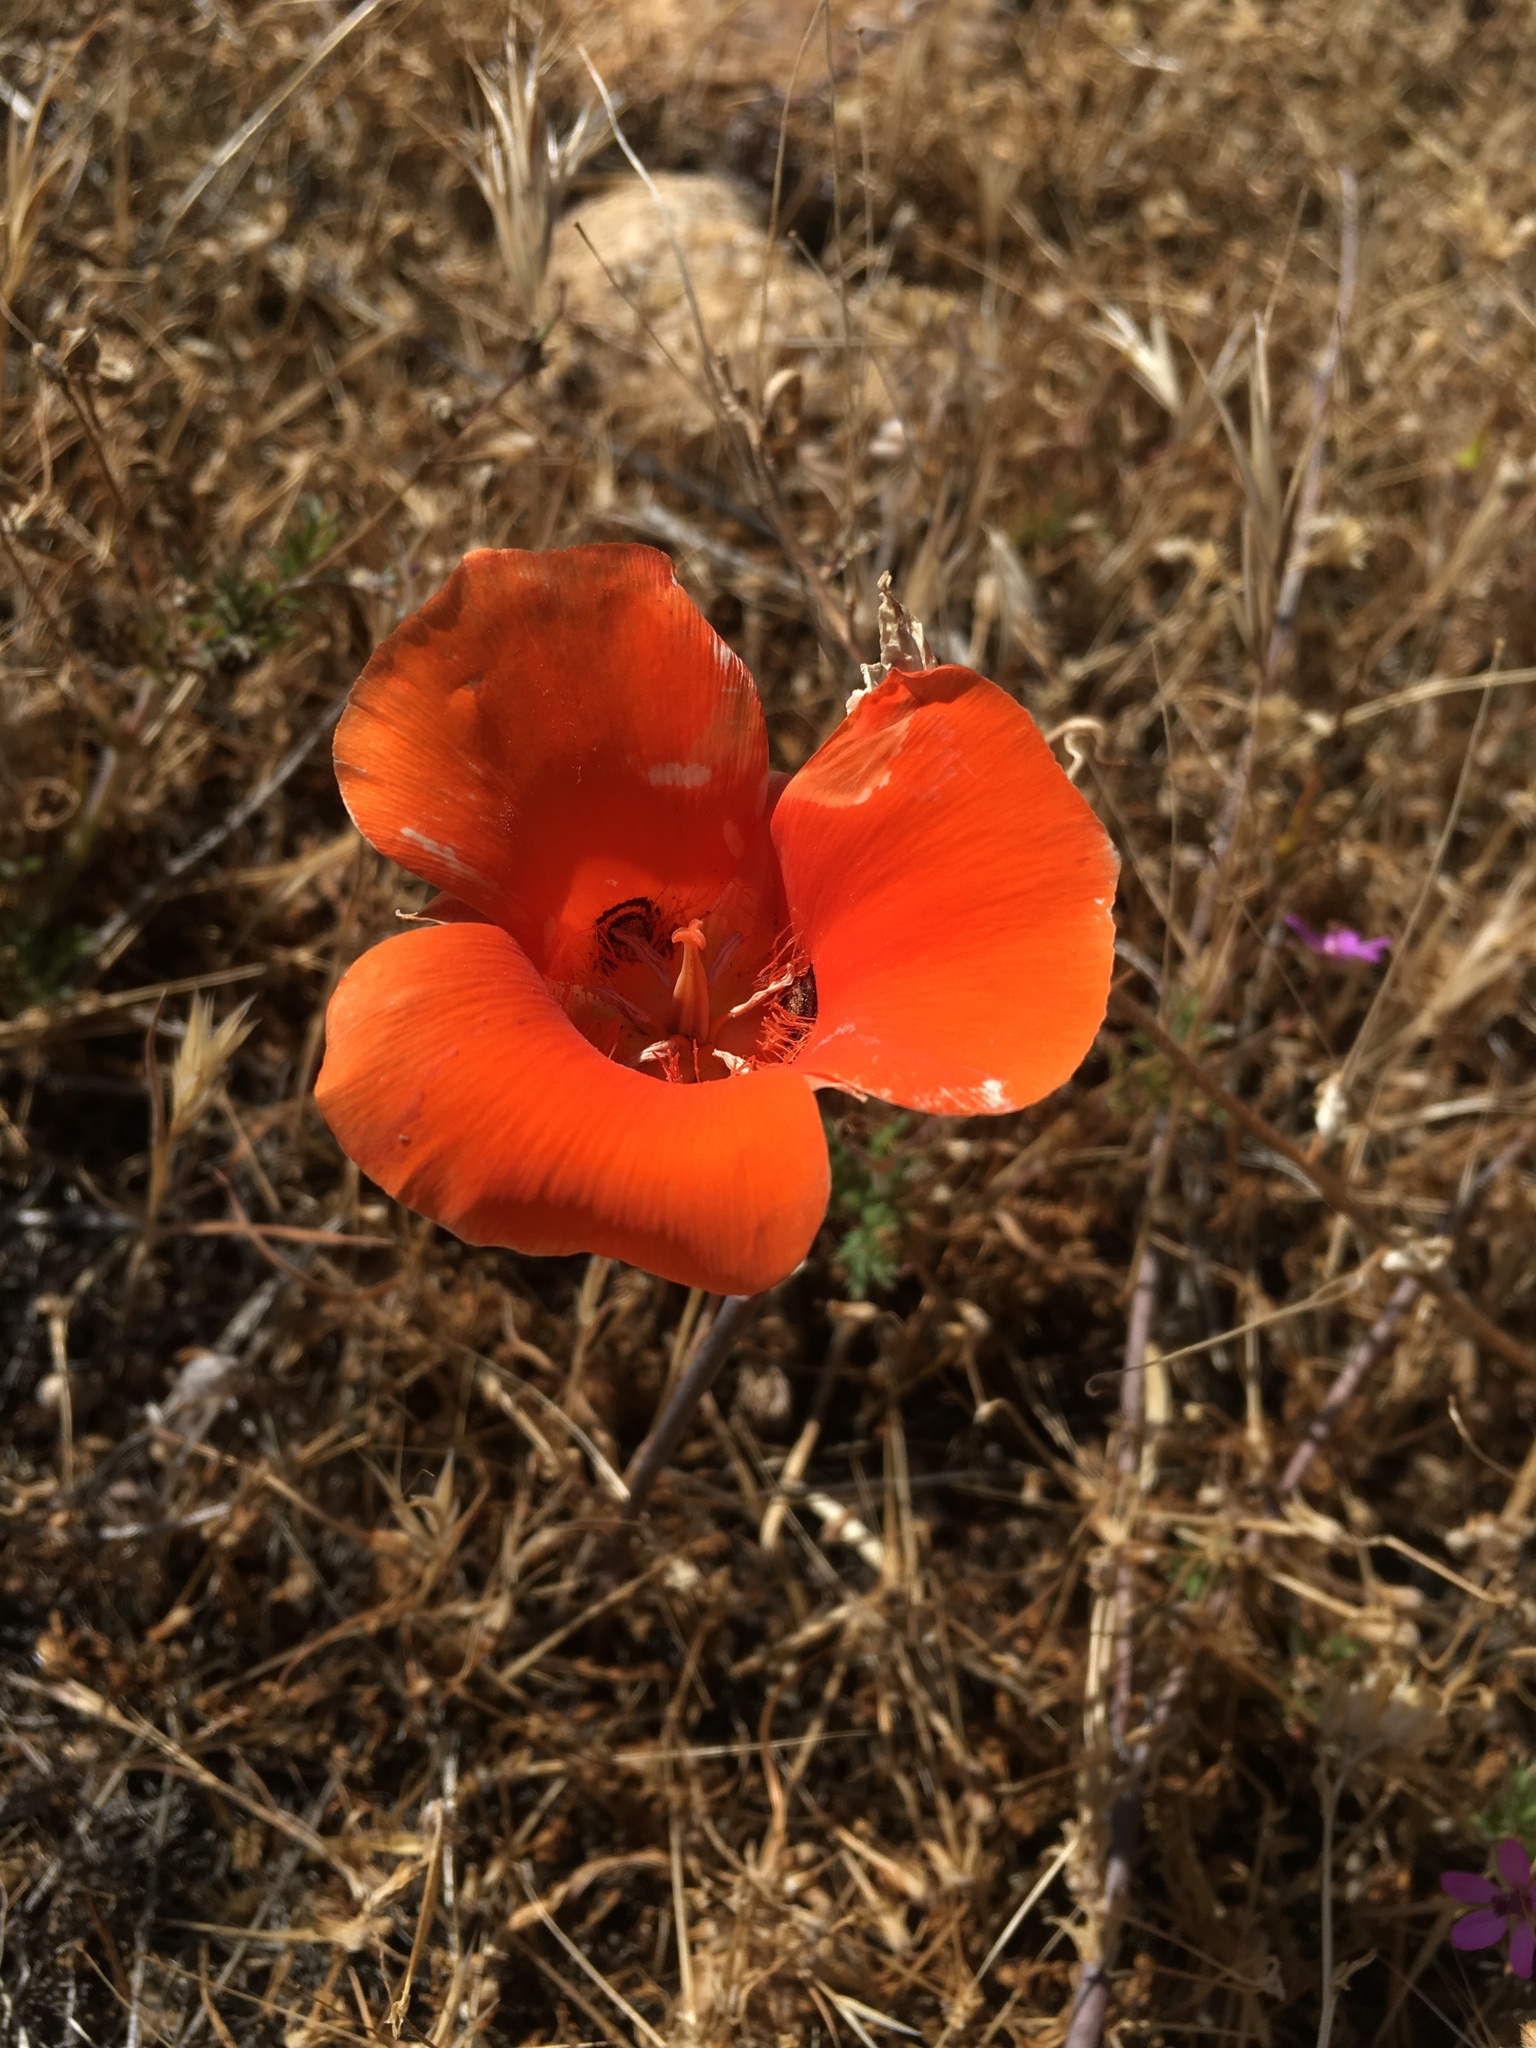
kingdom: Plantae
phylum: Tracheophyta
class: Liliopsida
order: Liliales
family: Liliaceae
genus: Calochortus
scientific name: Calochortus kennedyi
